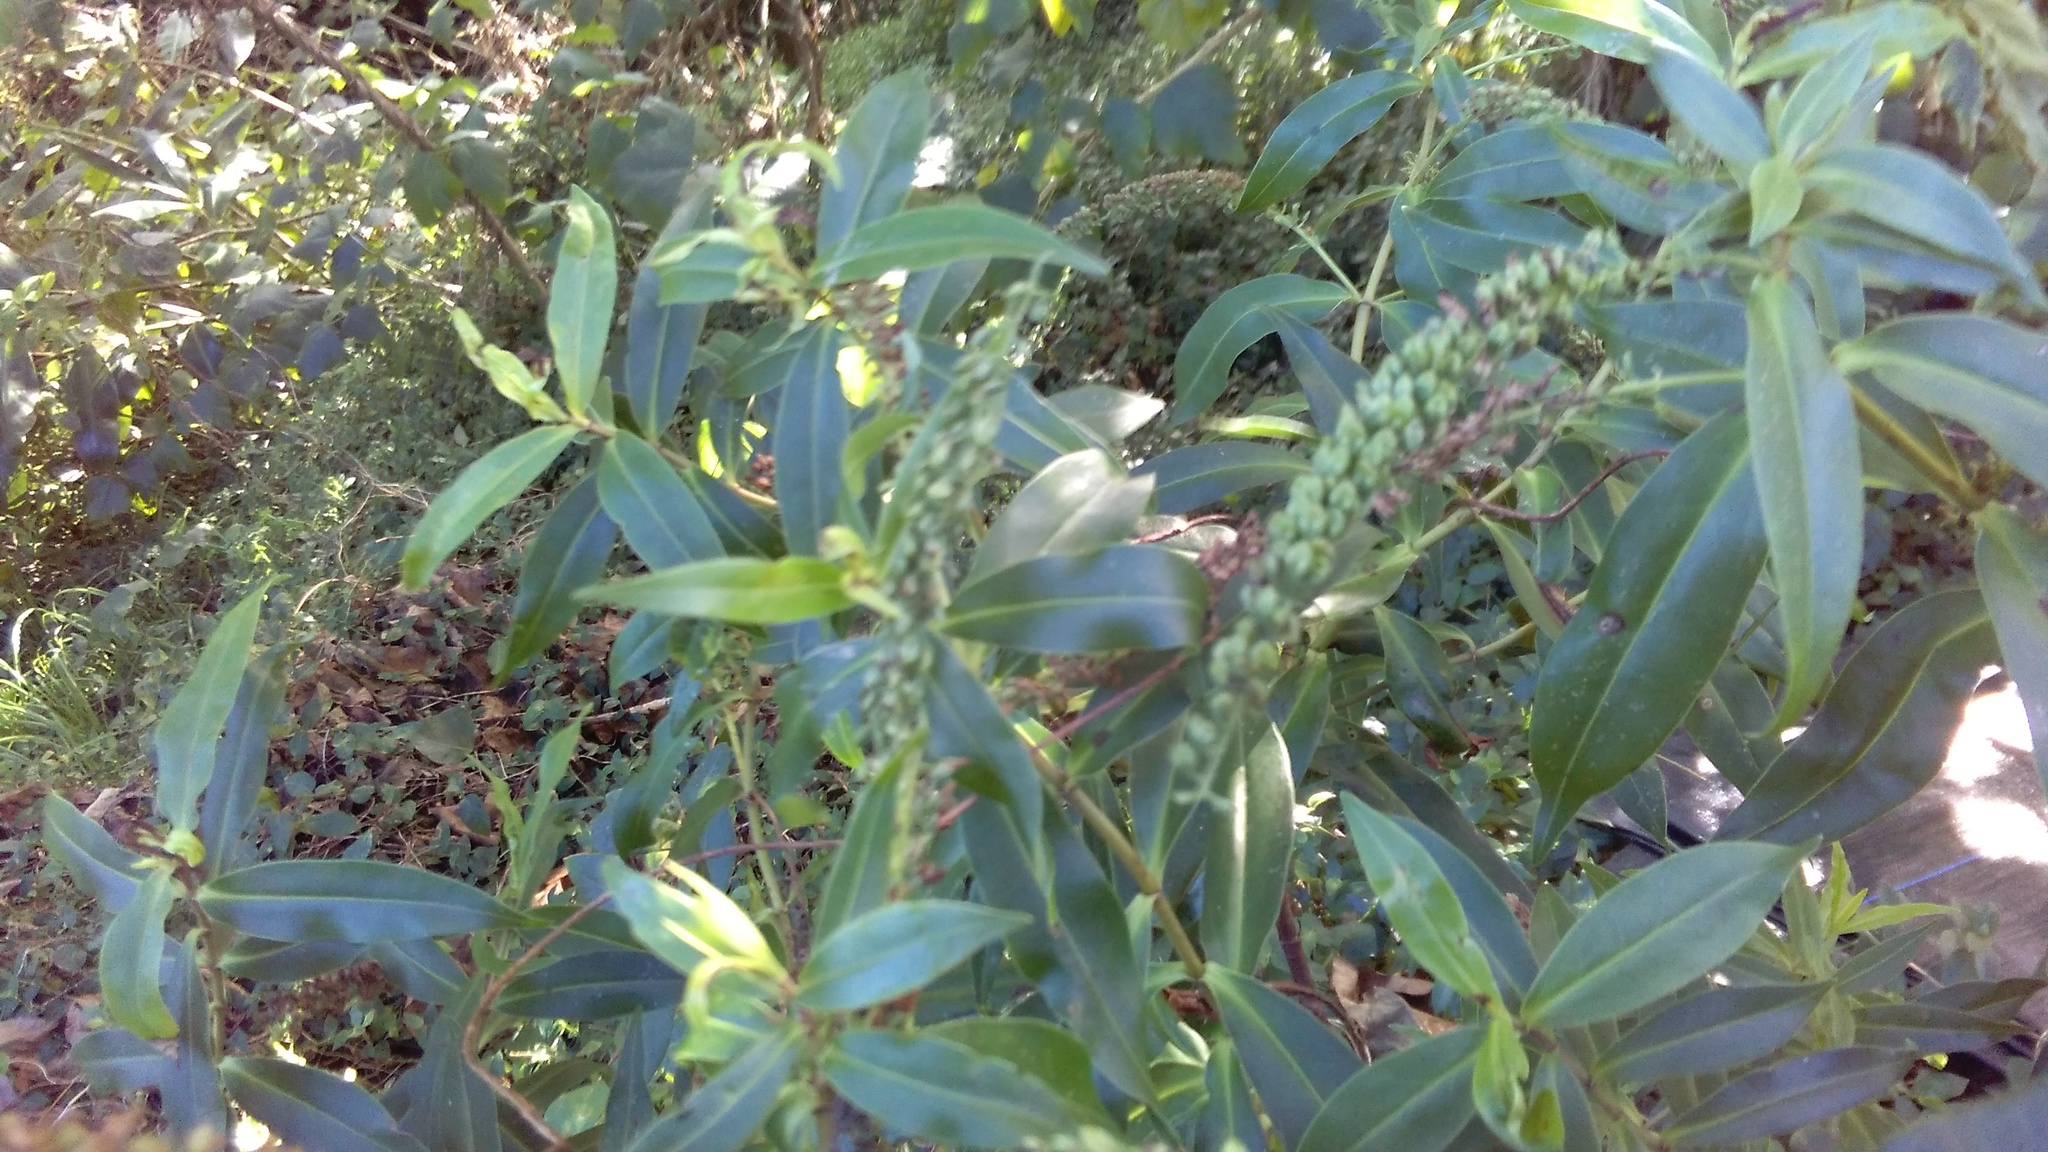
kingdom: Plantae
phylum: Tracheophyta
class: Magnoliopsida
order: Lamiales
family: Plantaginaceae
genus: Veronica
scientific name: Veronica stricta
